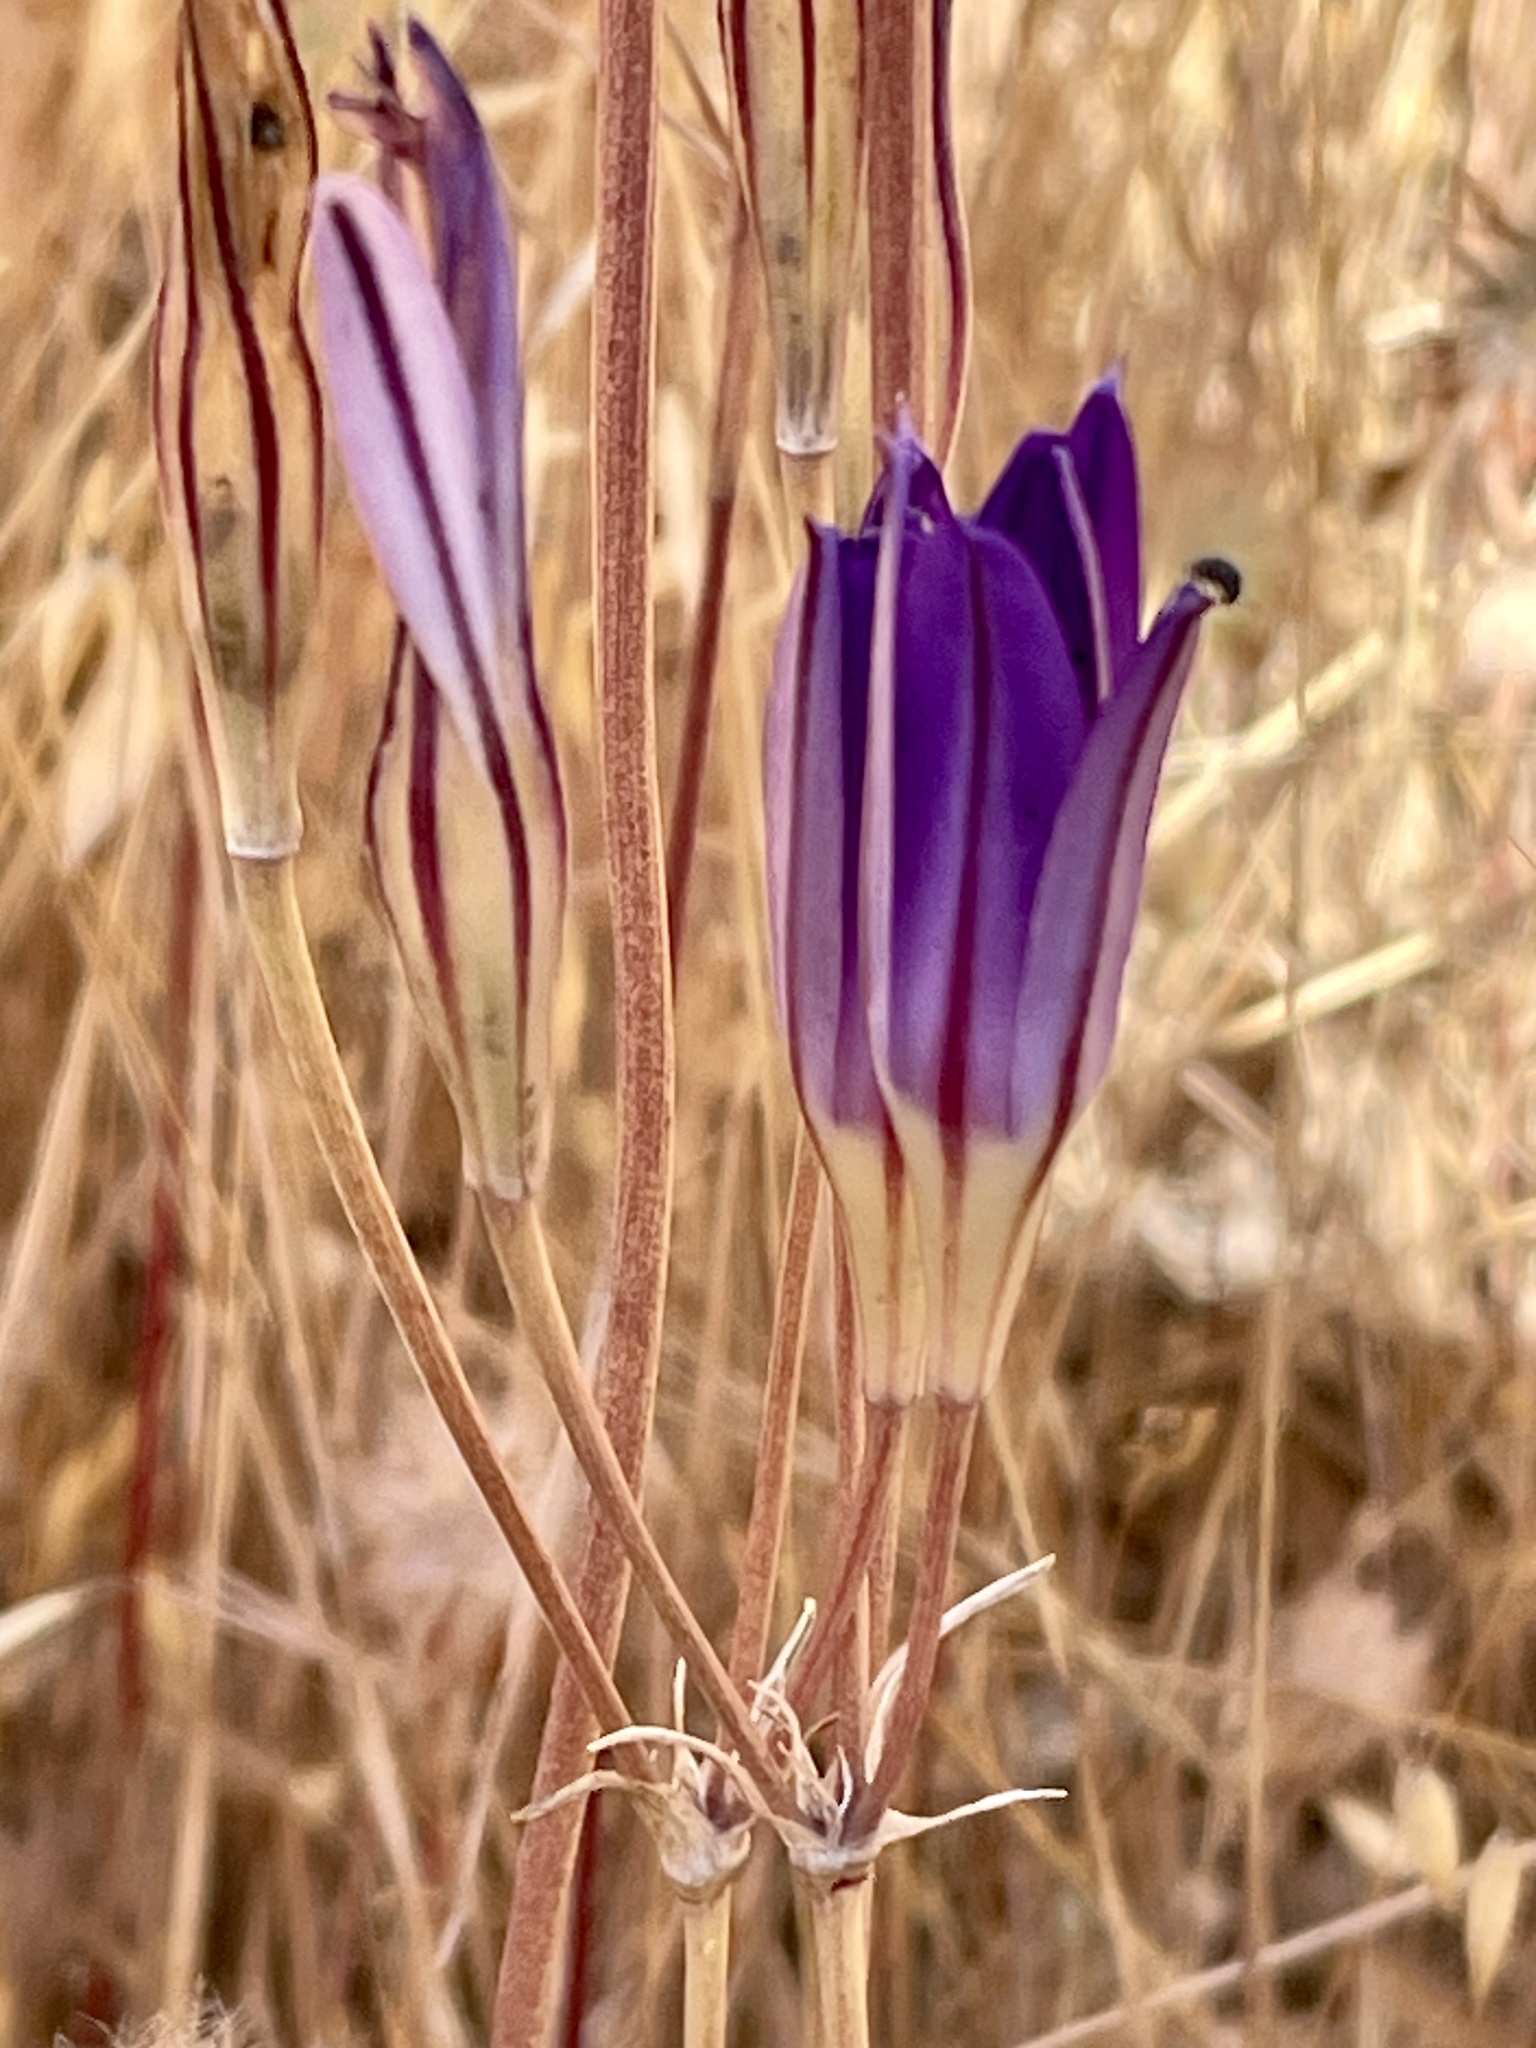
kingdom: Plantae
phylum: Tracheophyta
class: Liliopsida
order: Asparagales
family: Asparagaceae
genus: Brodiaea
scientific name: Brodiaea elegans
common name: Elegant cluster-lily
